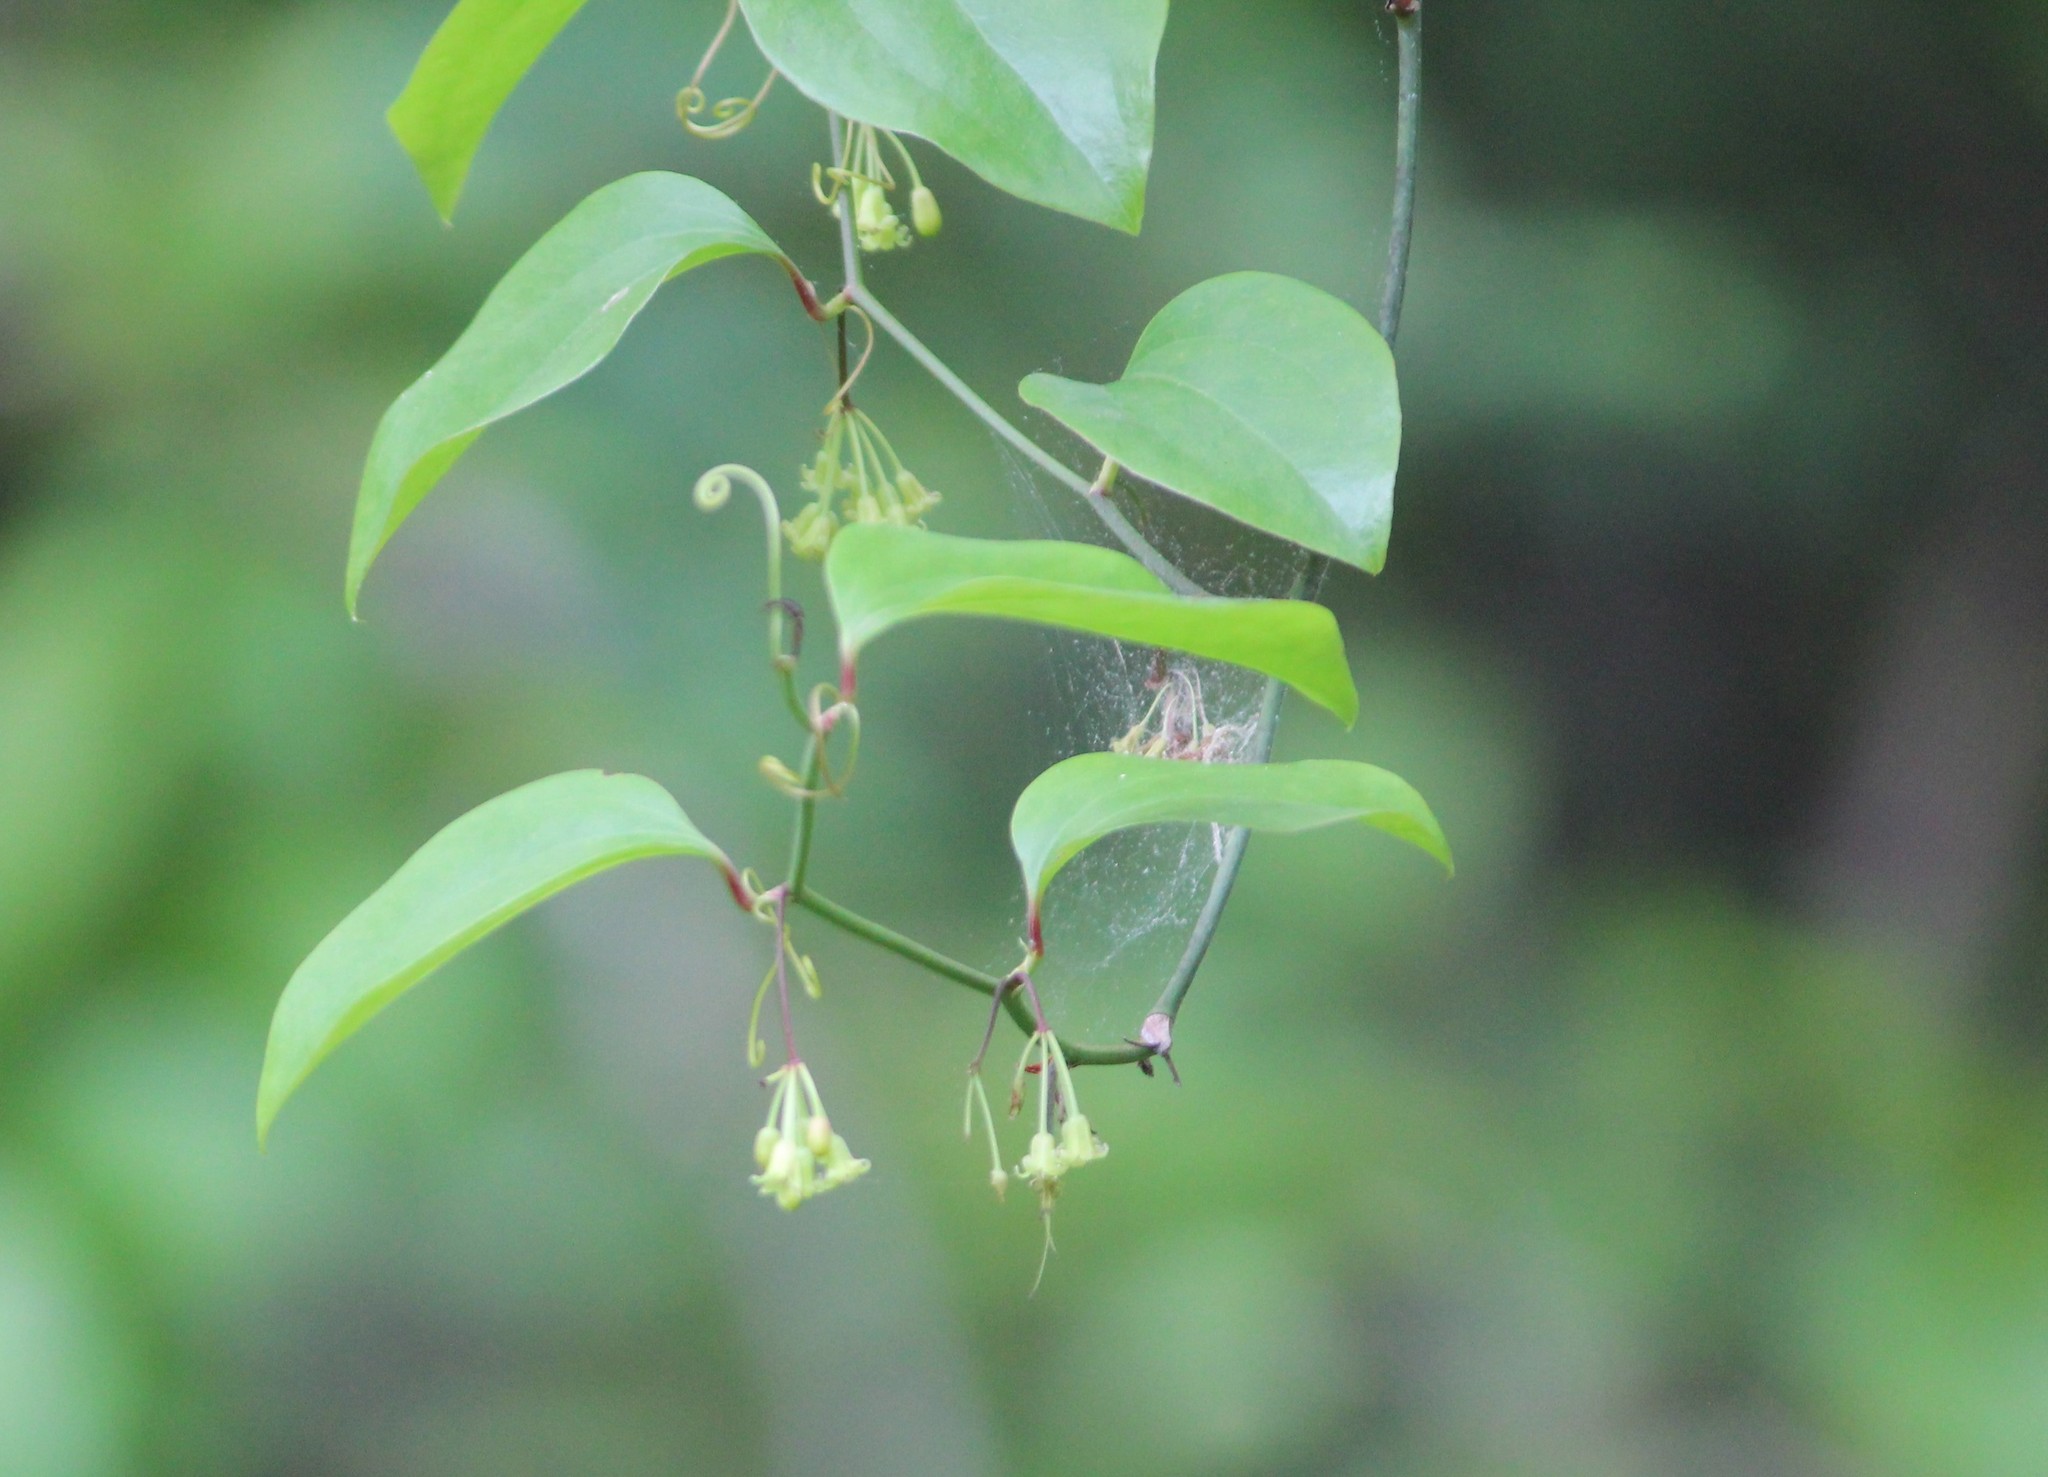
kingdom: Plantae
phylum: Tracheophyta
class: Liliopsida
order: Liliales
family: Smilacaceae
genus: Smilax
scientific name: Smilax rotundifolia
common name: Bullbriar
